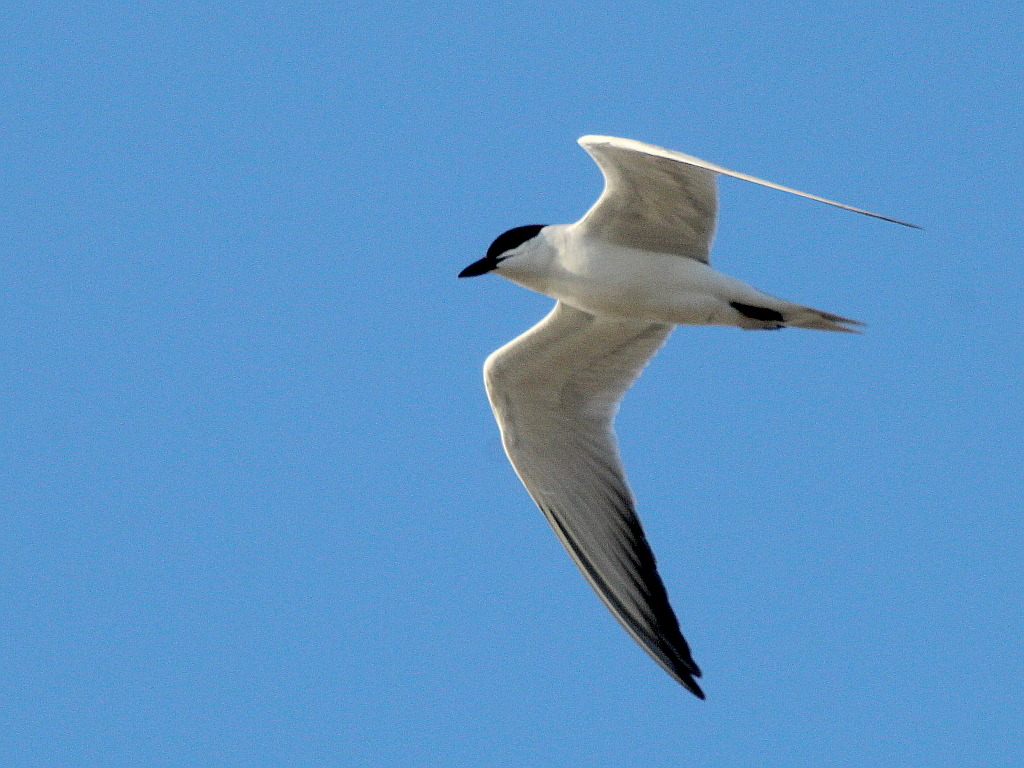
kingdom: Animalia
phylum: Chordata
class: Aves
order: Charadriiformes
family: Laridae
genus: Gelochelidon
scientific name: Gelochelidon nilotica
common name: Gull-billed tern
